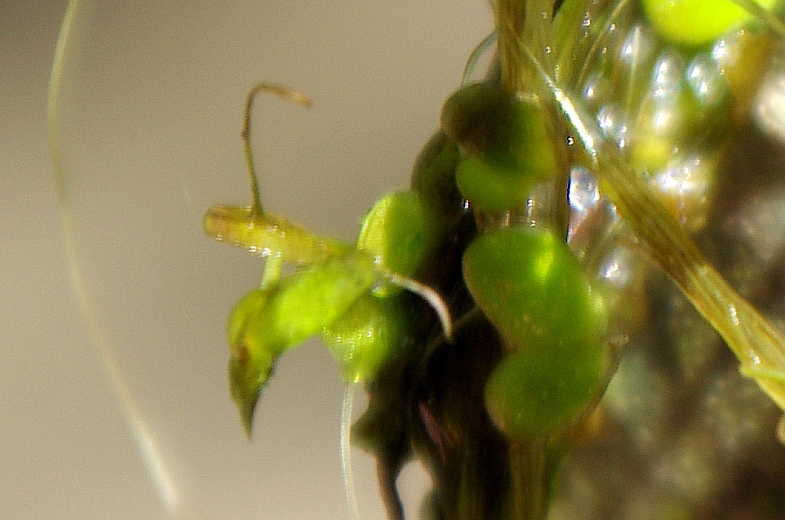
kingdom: Plantae
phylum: Tracheophyta
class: Liliopsida
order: Alismatales
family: Araceae
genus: Lemna
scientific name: Lemna minor
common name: Common duckweed
